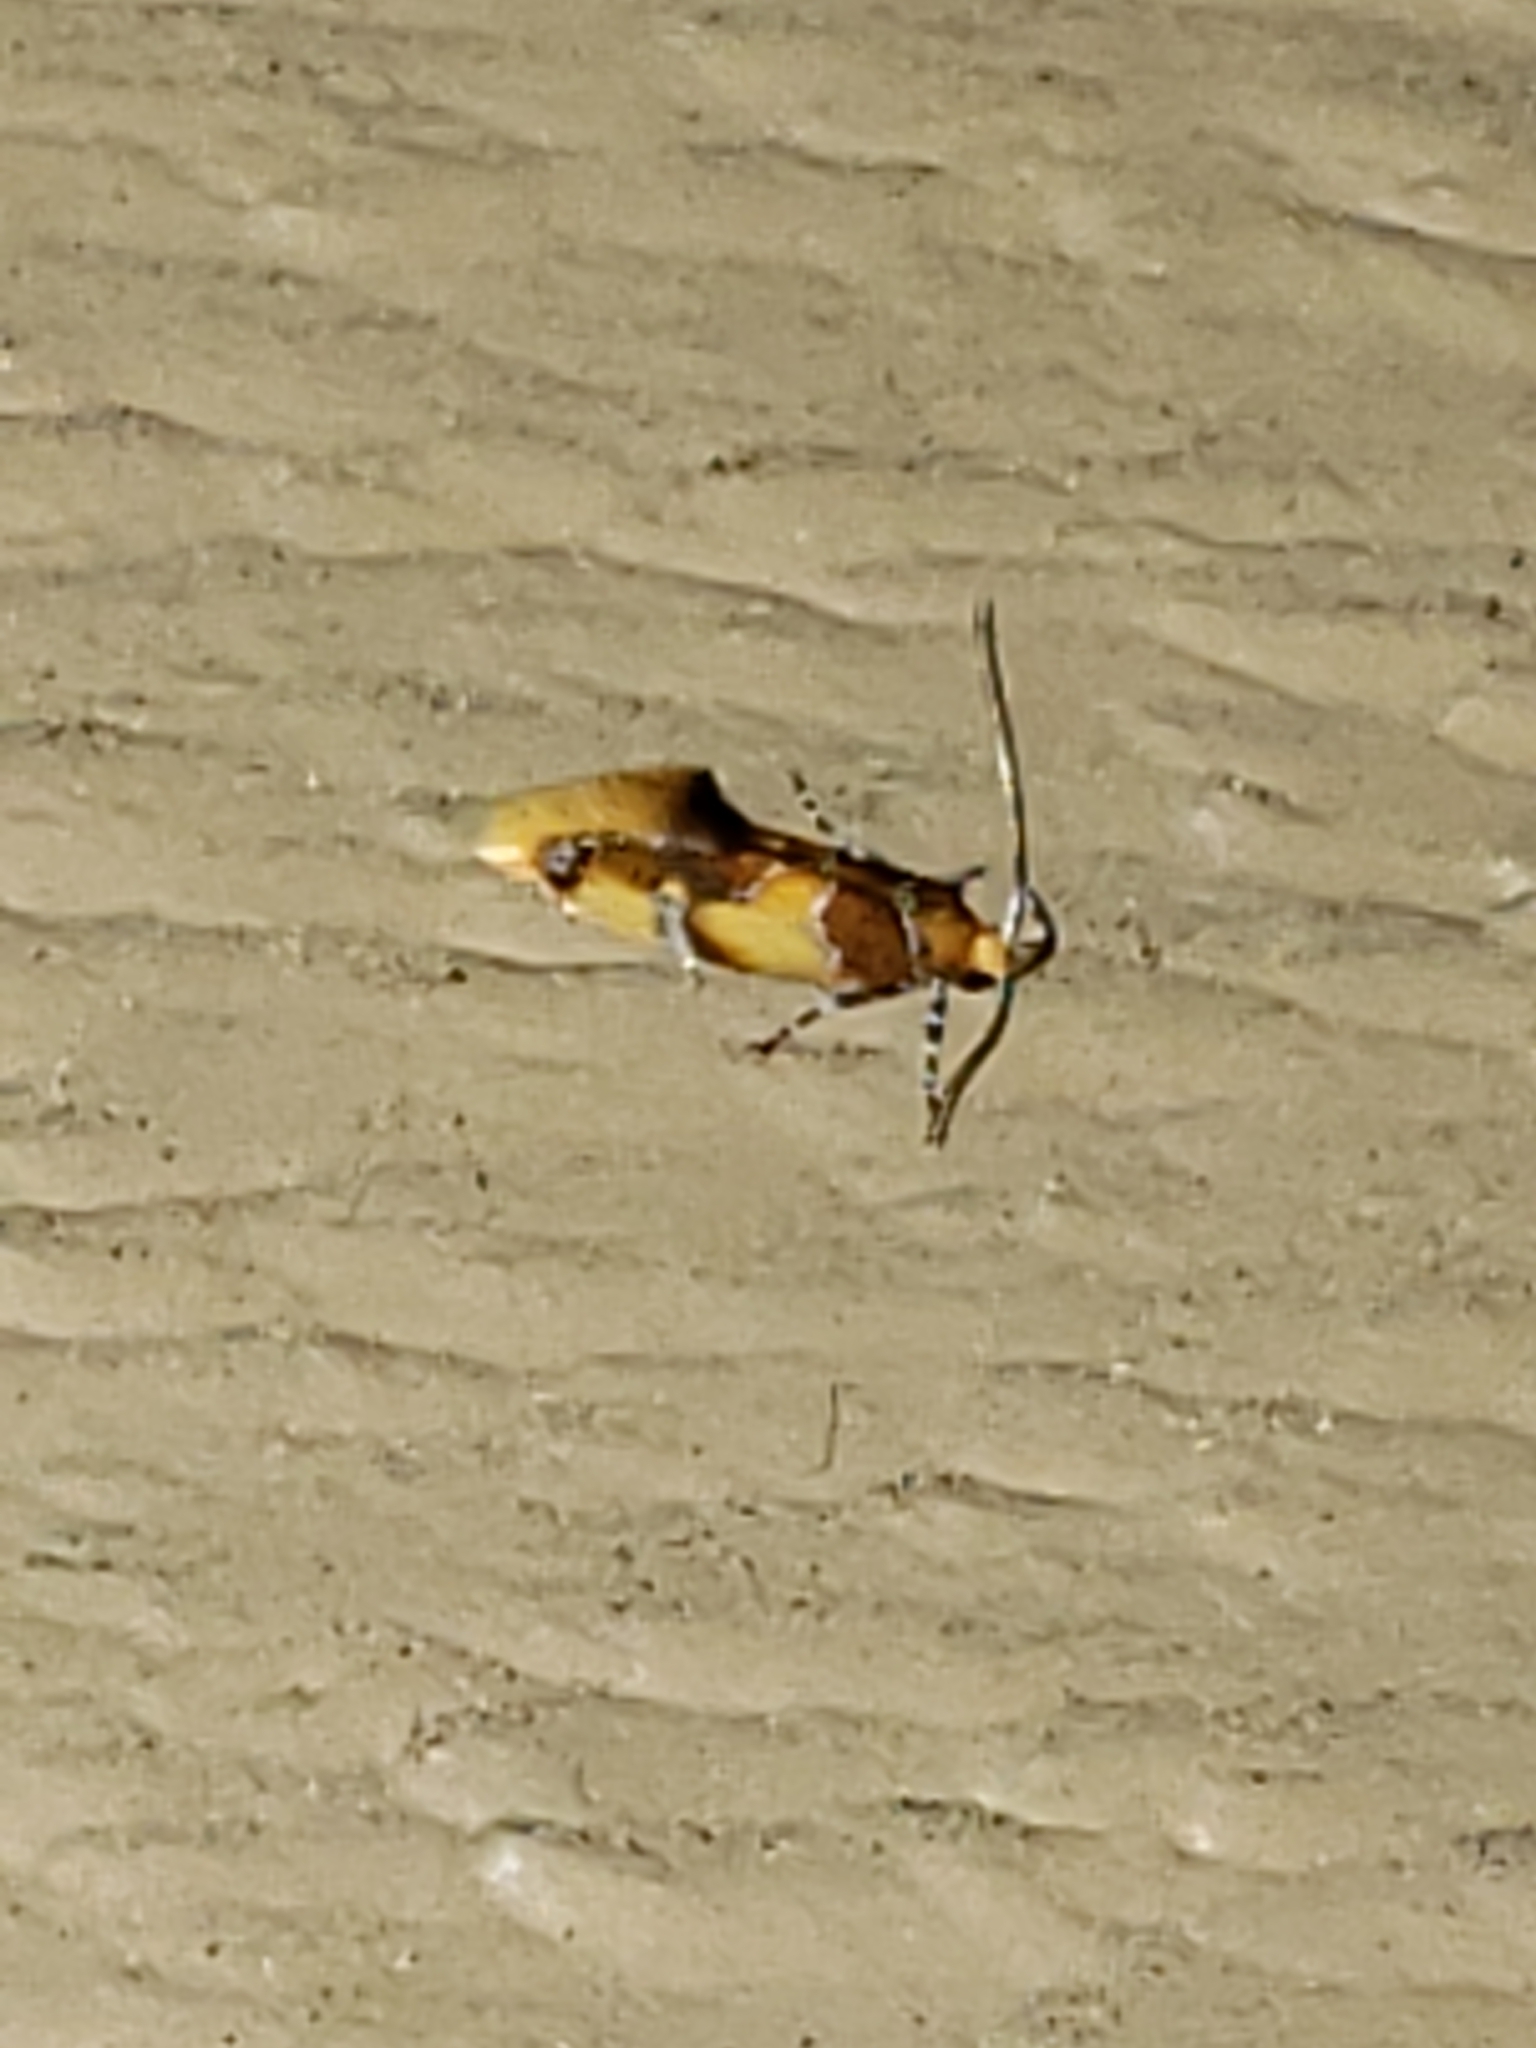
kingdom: Animalia
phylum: Arthropoda
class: Insecta
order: Lepidoptera
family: Oecophoridae
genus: Callima
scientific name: Callima argenticinctella
